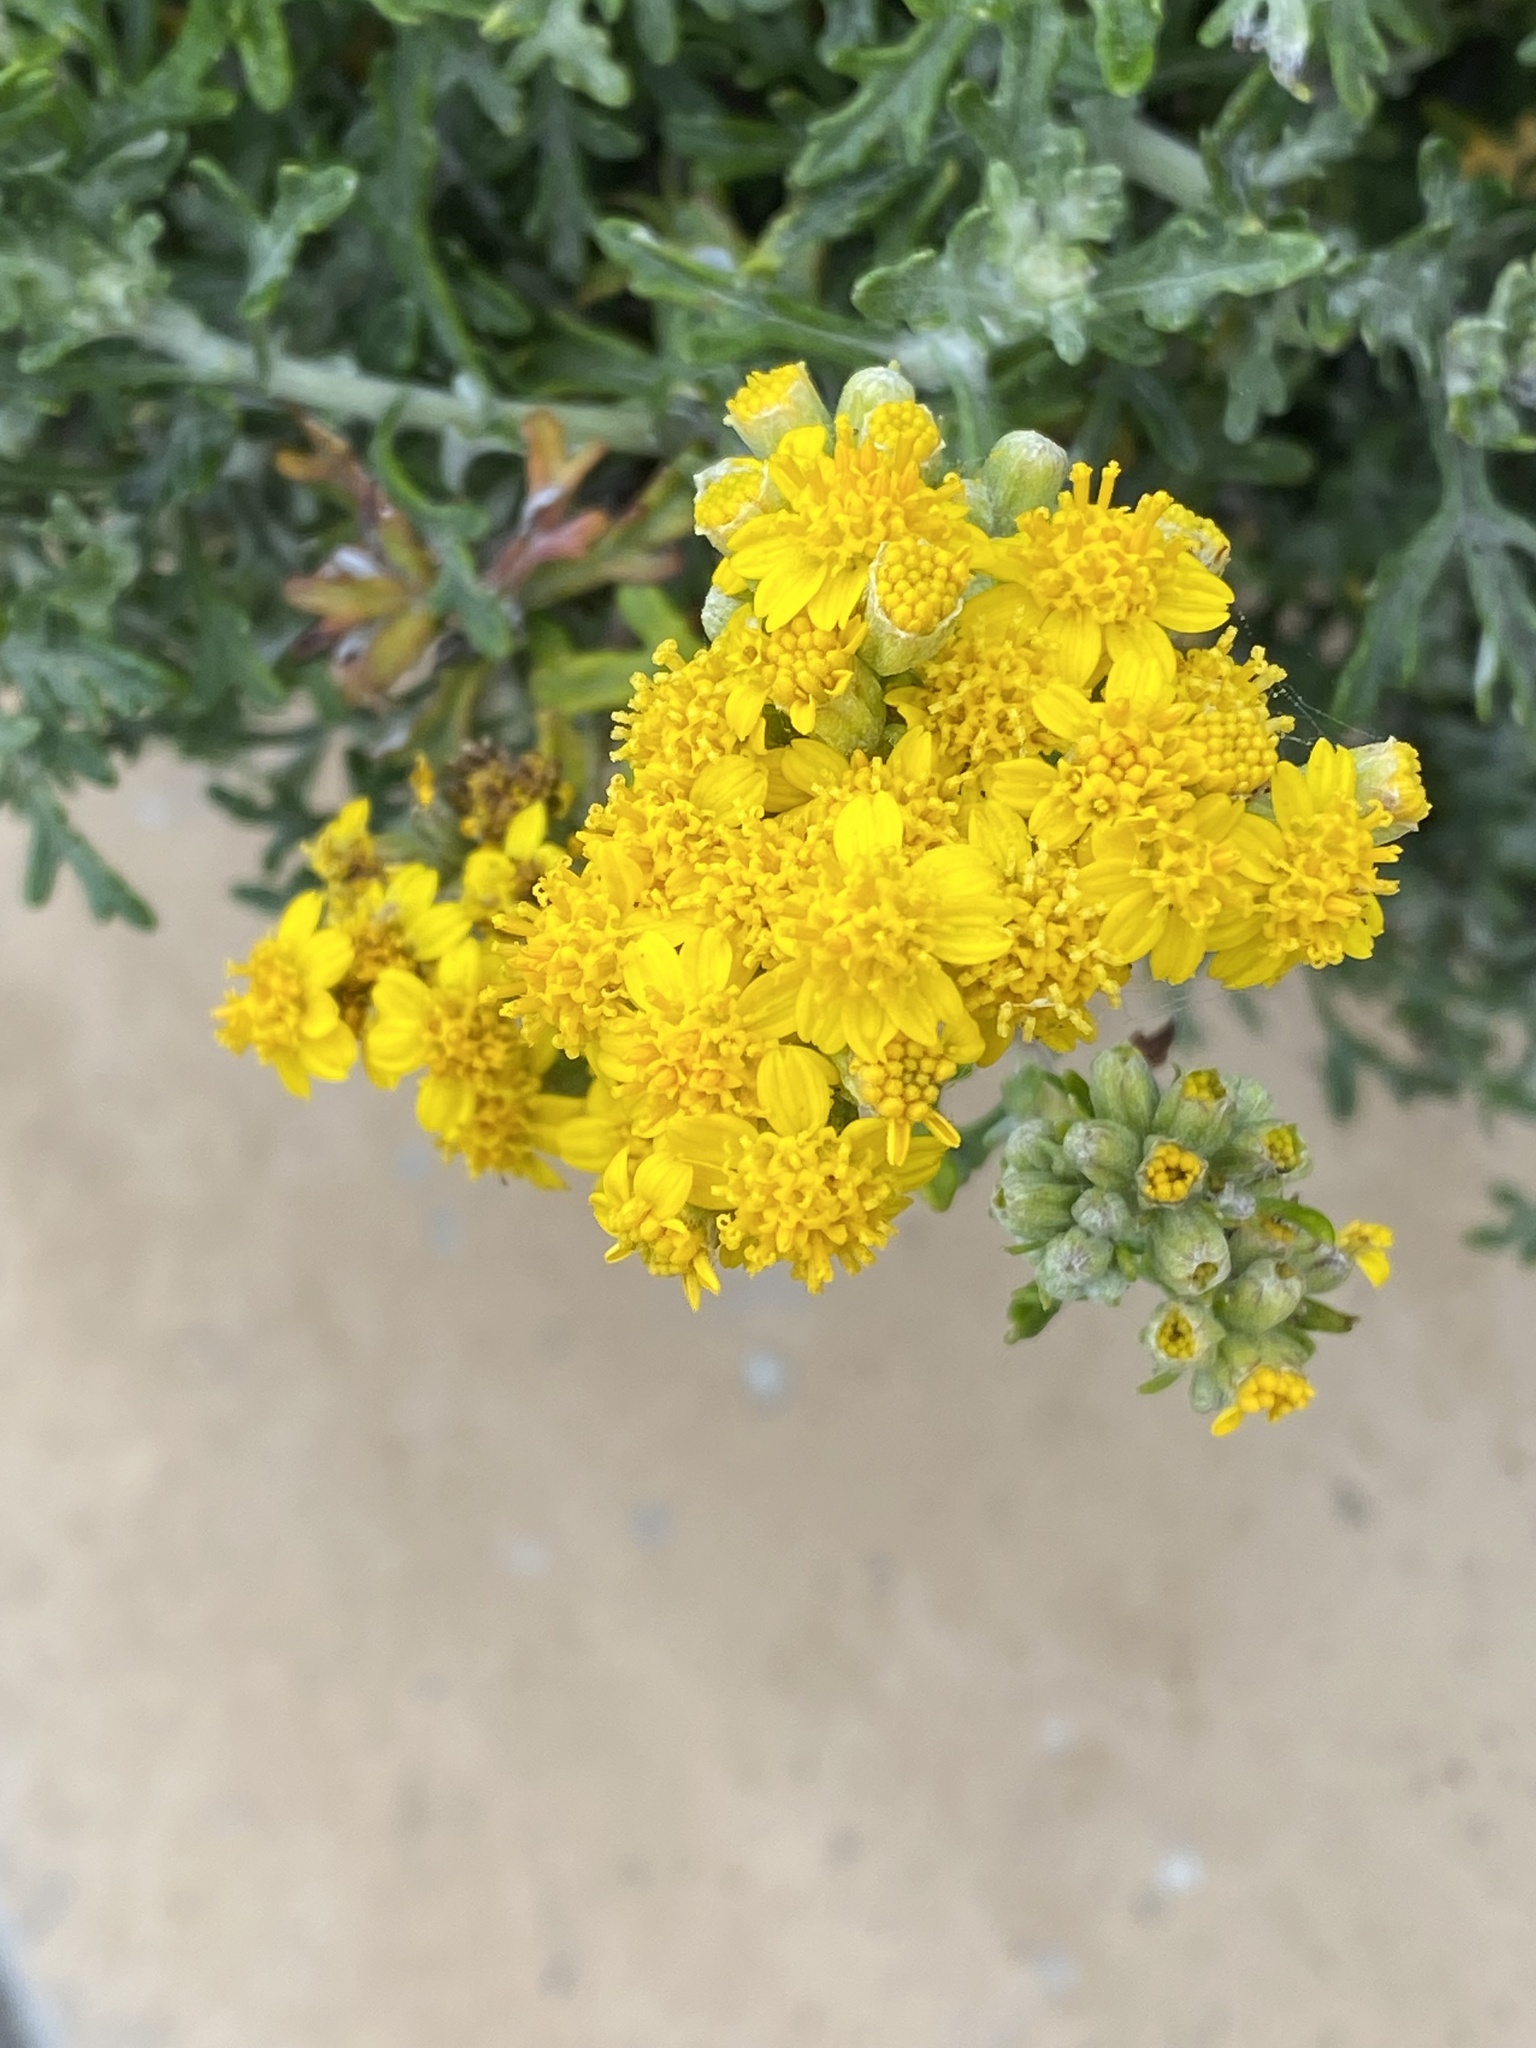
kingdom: Plantae
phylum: Tracheophyta
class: Magnoliopsida
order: Asterales
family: Asteraceae
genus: Eriophyllum
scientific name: Eriophyllum staechadifolium
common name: Lizardtail
